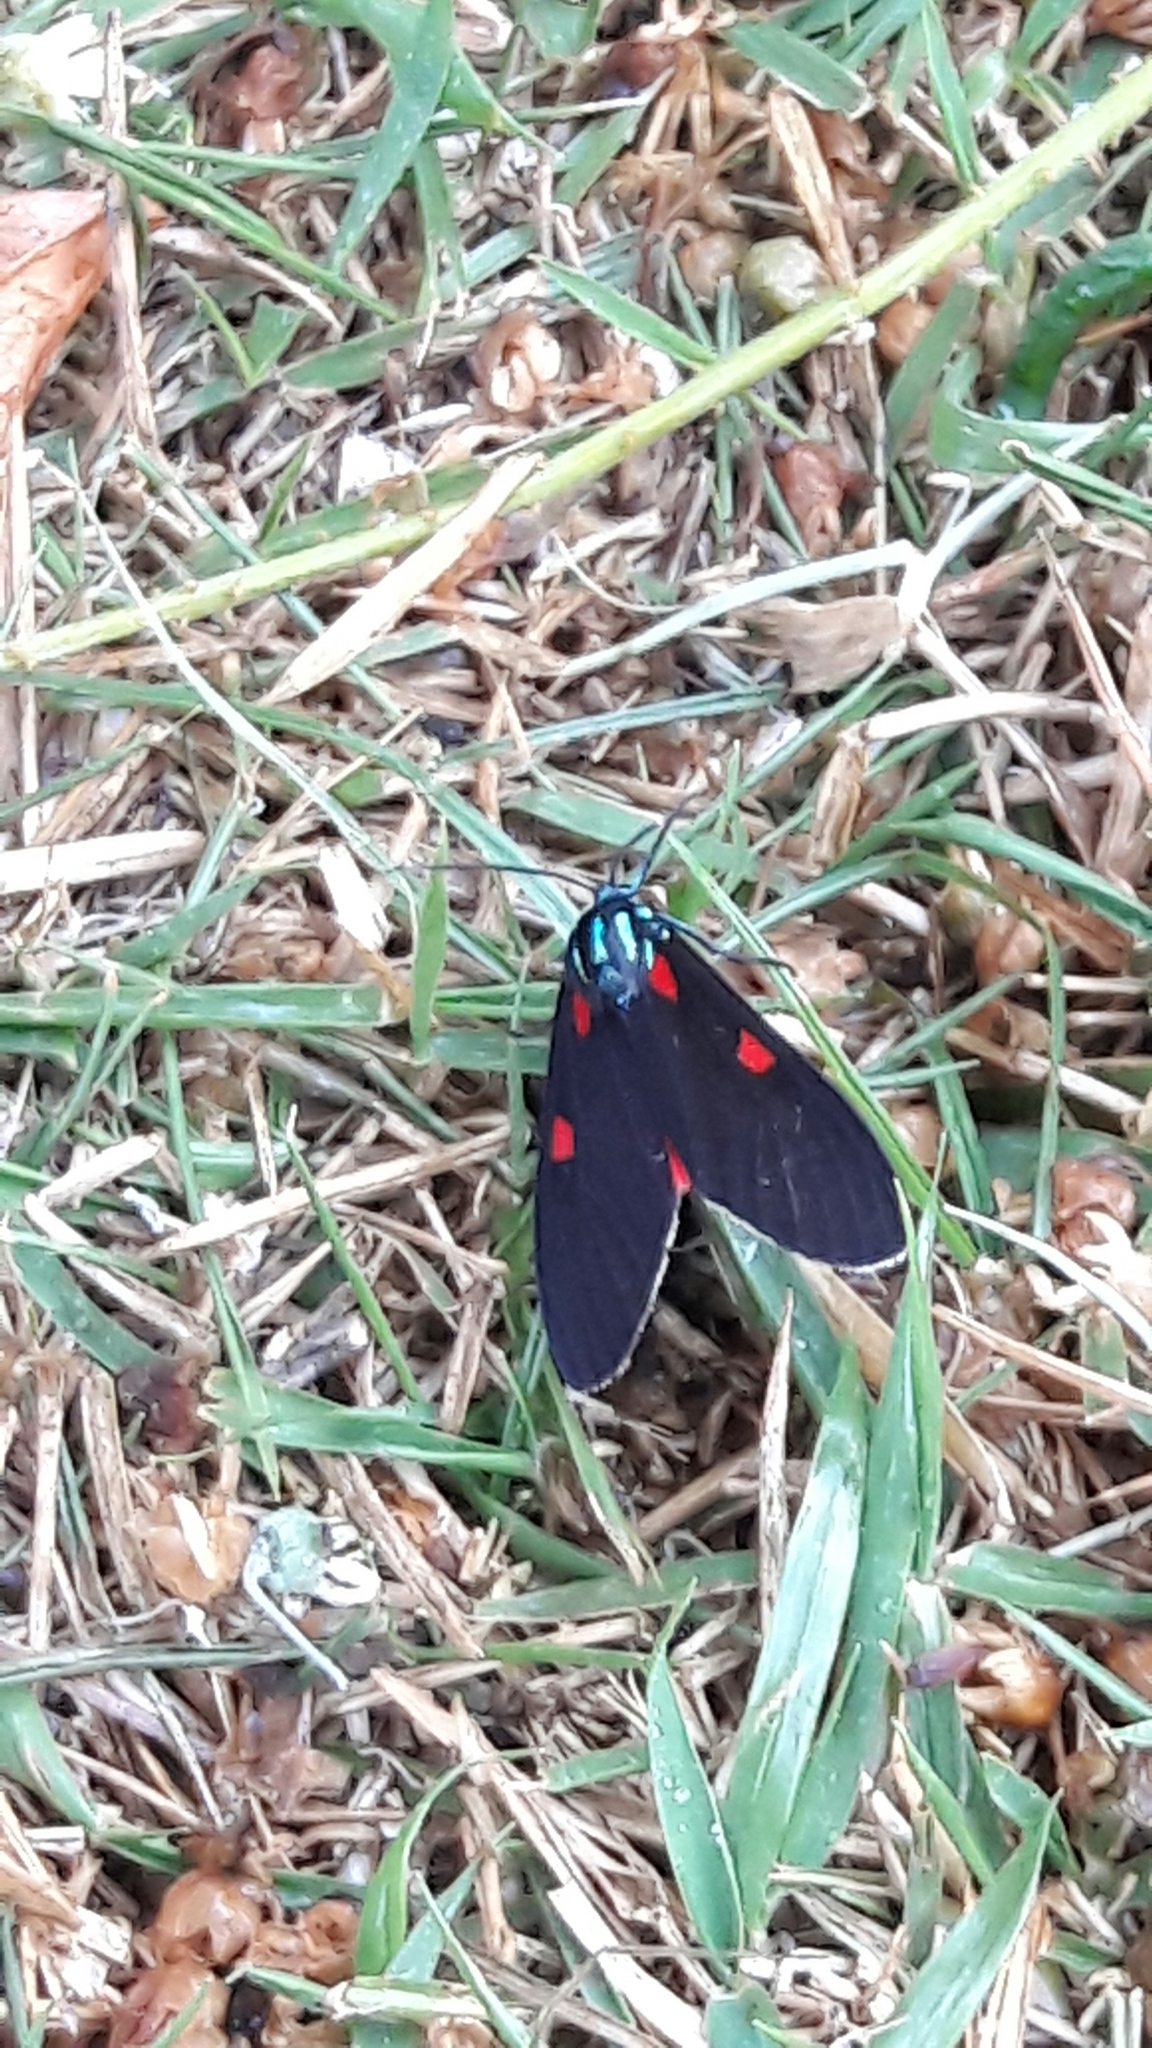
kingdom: Animalia
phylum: Arthropoda
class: Insecta
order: Lepidoptera
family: Erebidae
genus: Cyanopepla
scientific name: Cyanopepla fastuosa
